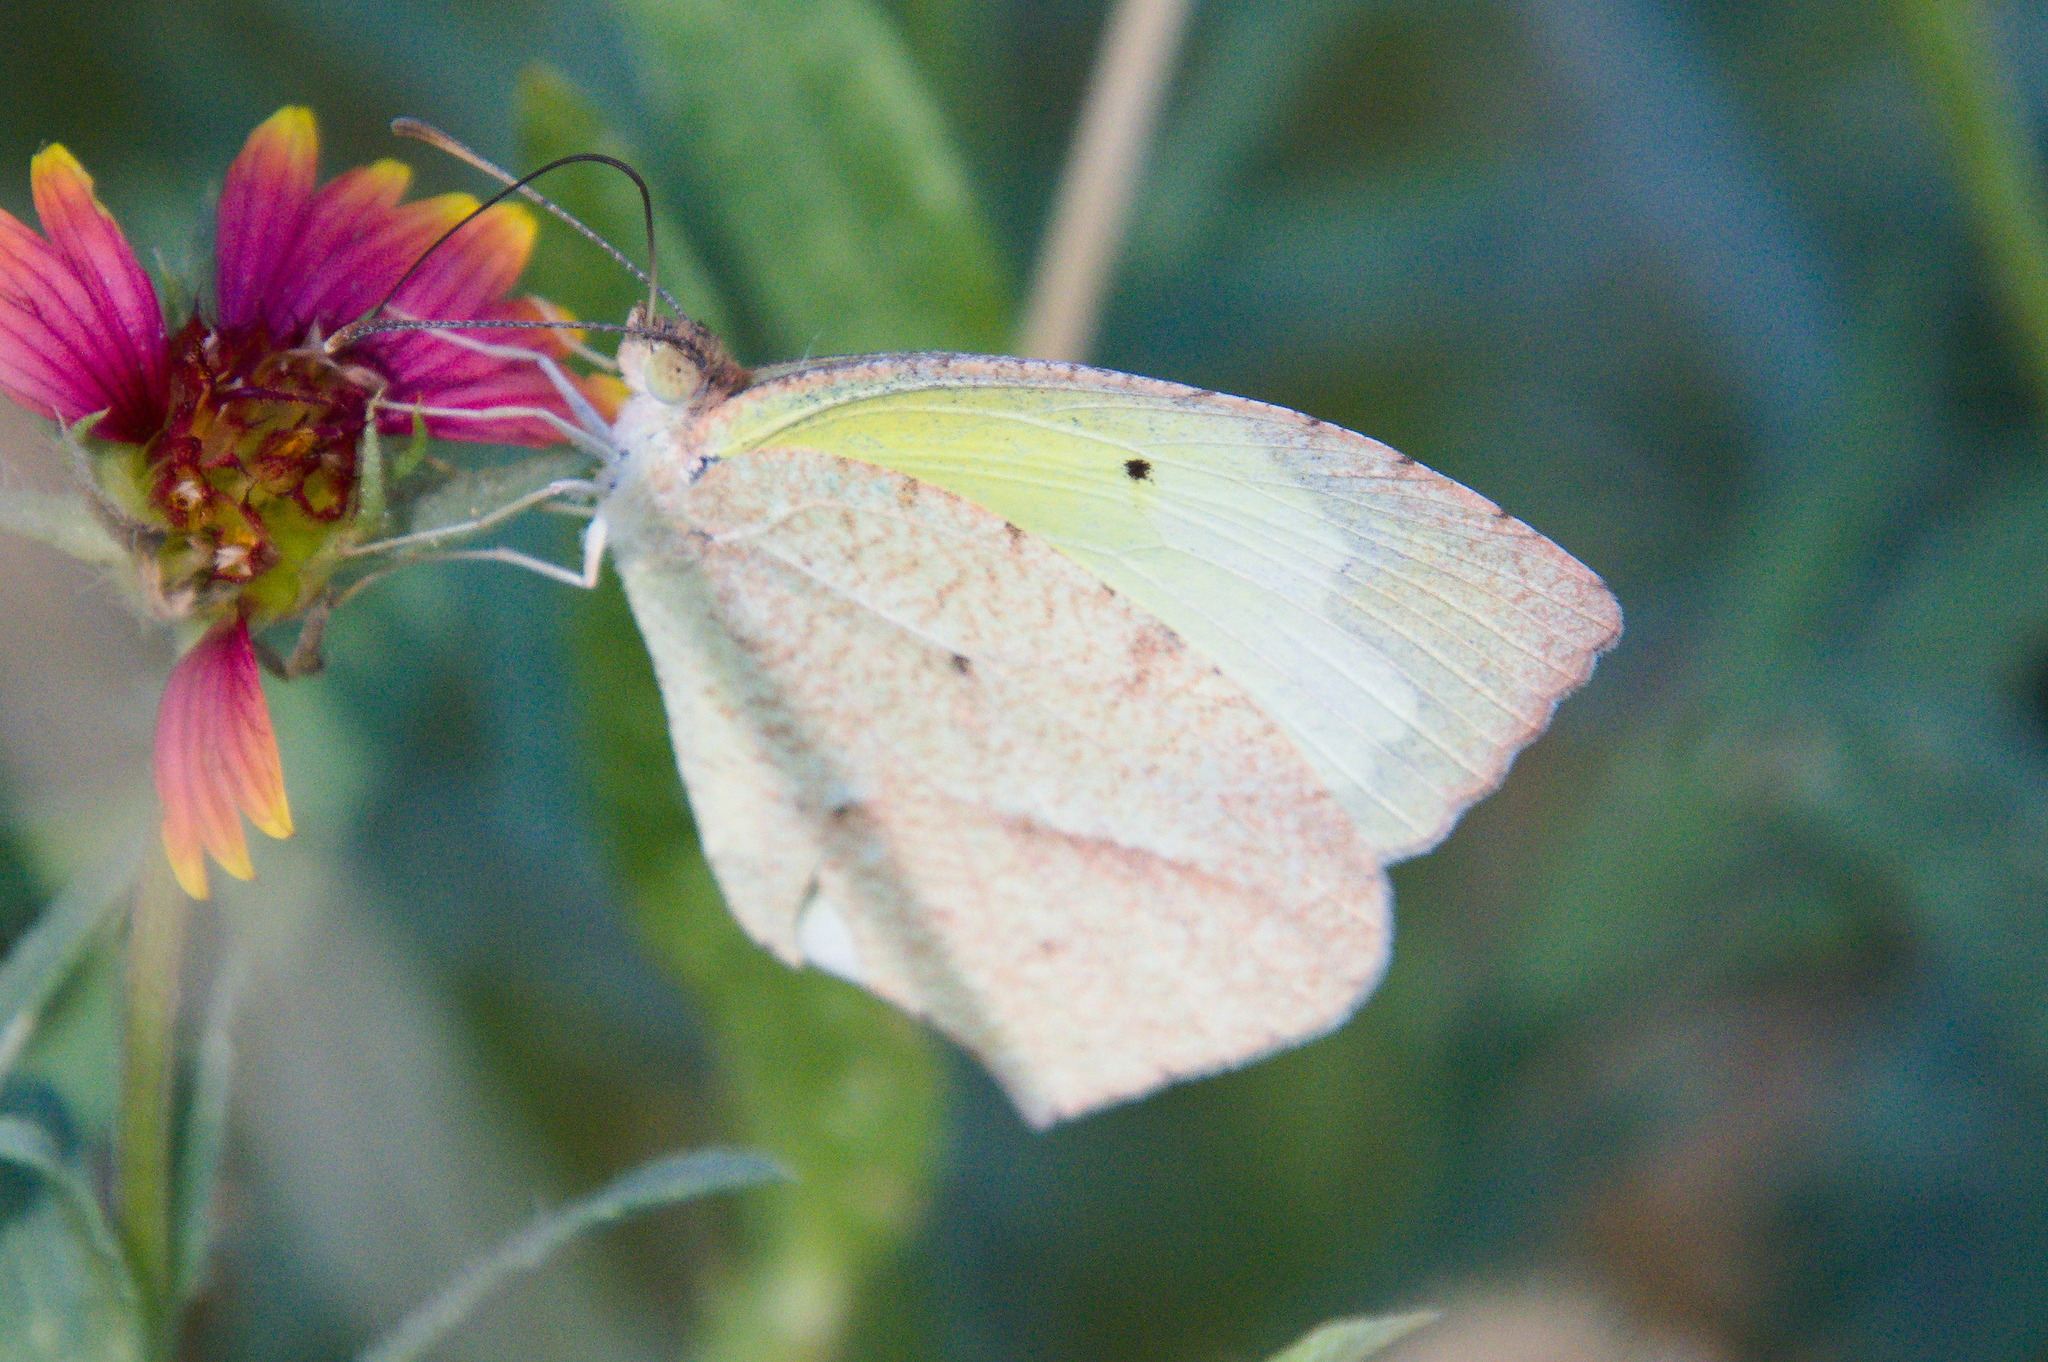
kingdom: Animalia
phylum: Arthropoda
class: Insecta
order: Lepidoptera
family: Pieridae
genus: Abaeis
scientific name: Abaeis mexicana
